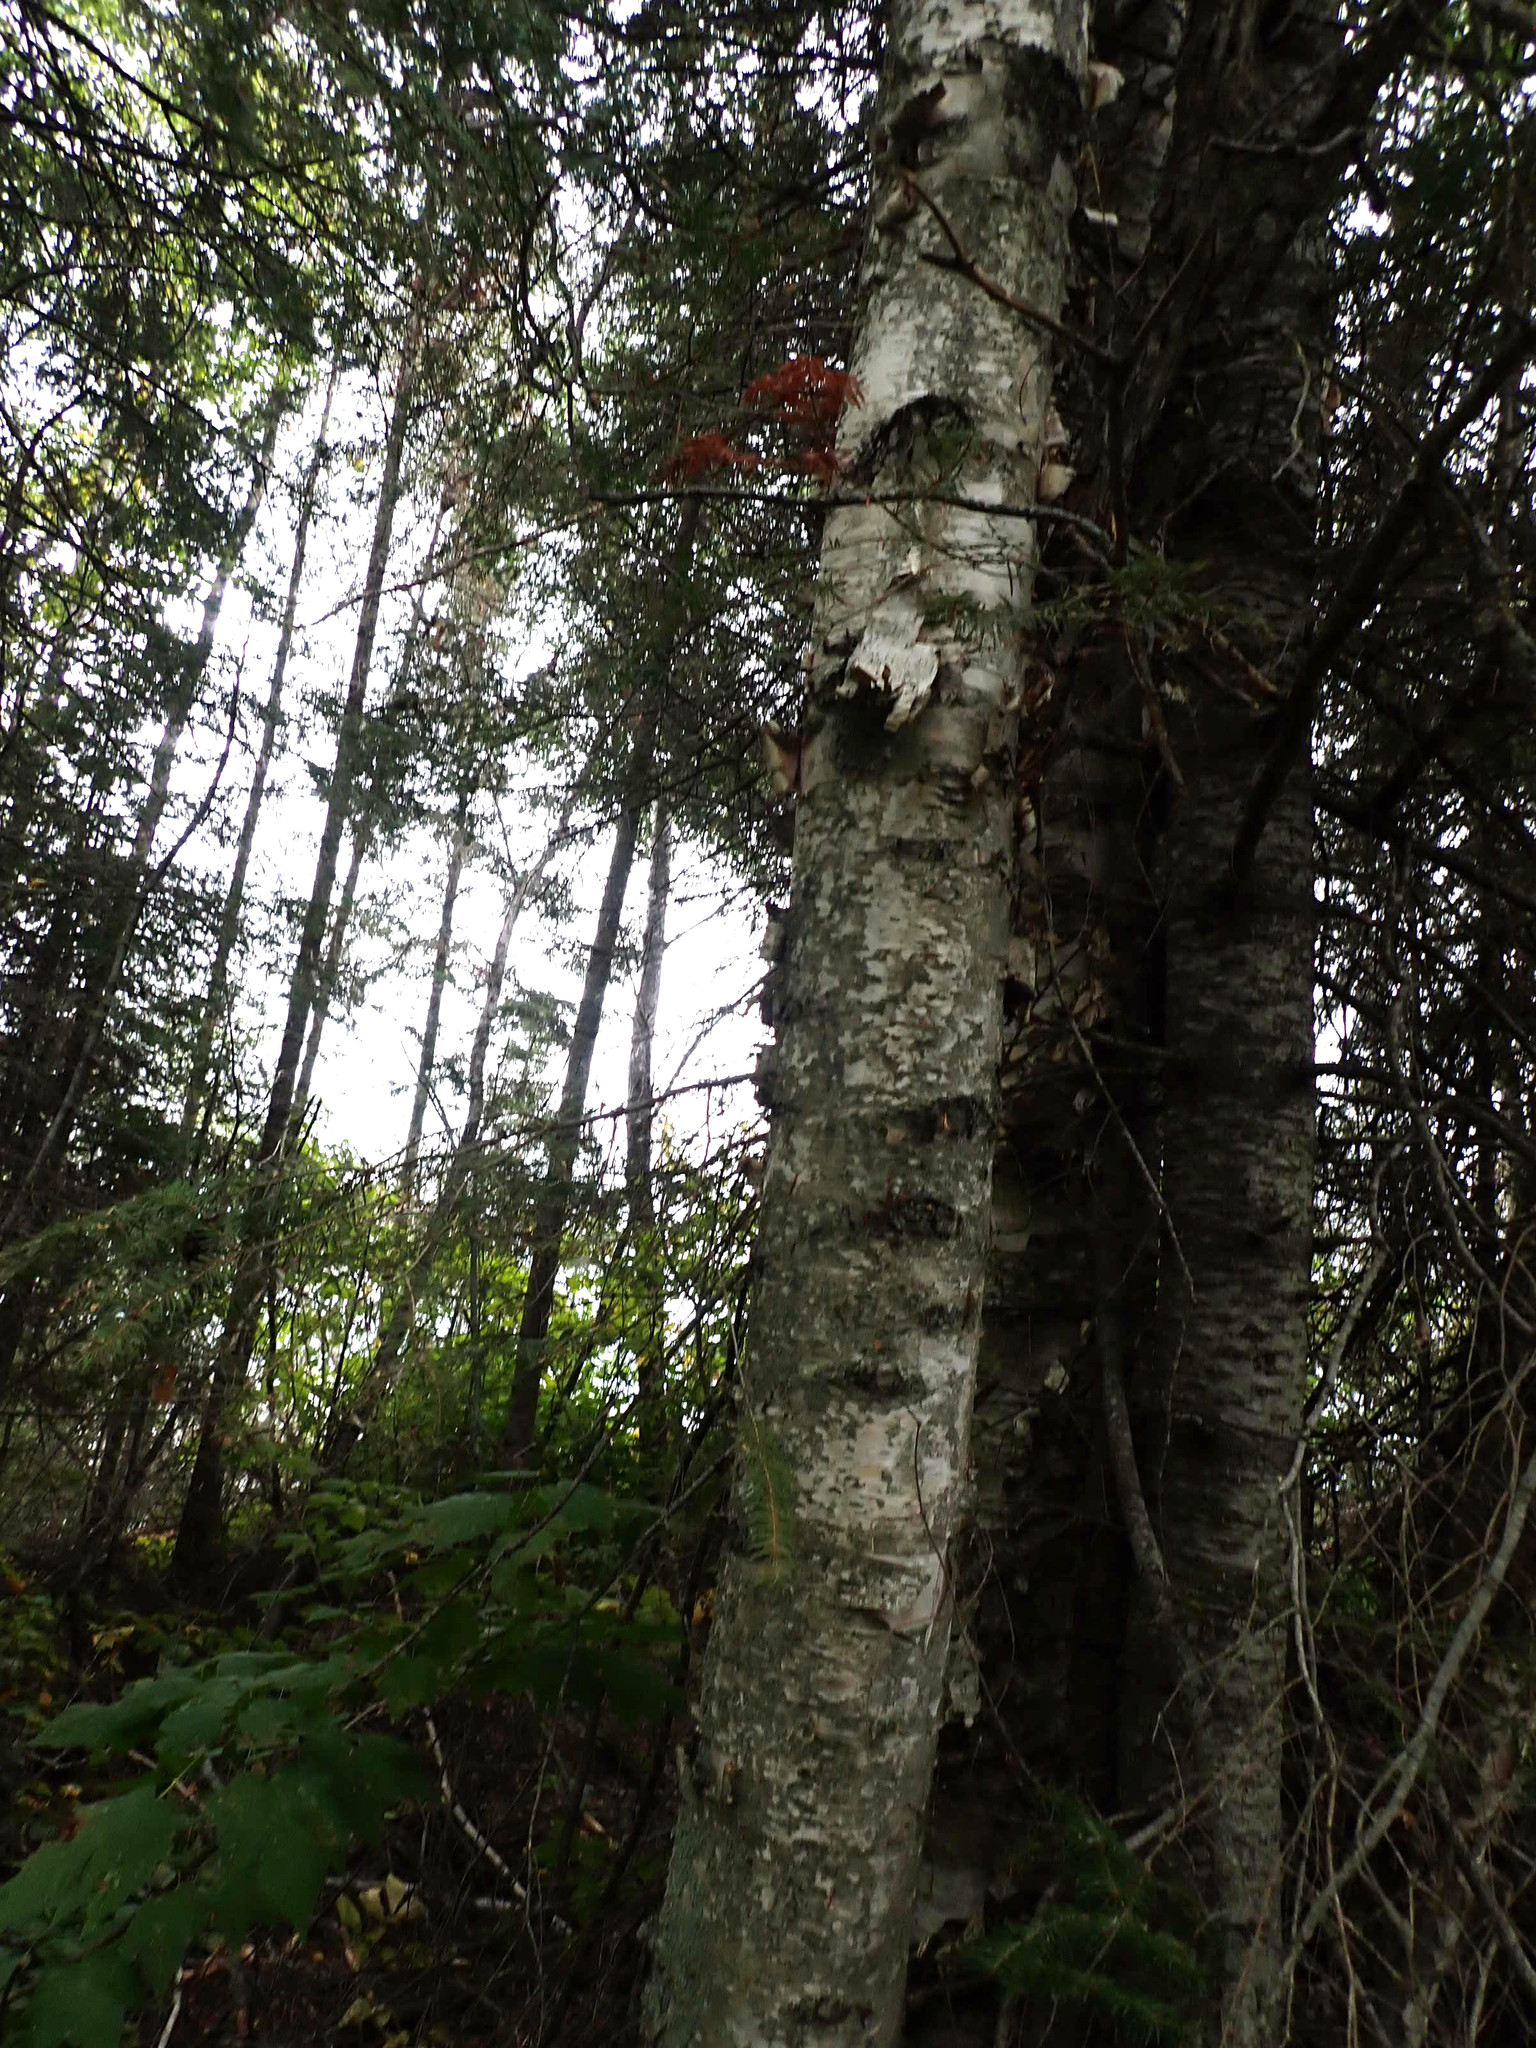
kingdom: Plantae
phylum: Tracheophyta
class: Magnoliopsida
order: Fagales
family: Betulaceae
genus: Betula
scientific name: Betula papyrifera
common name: Paper birch
